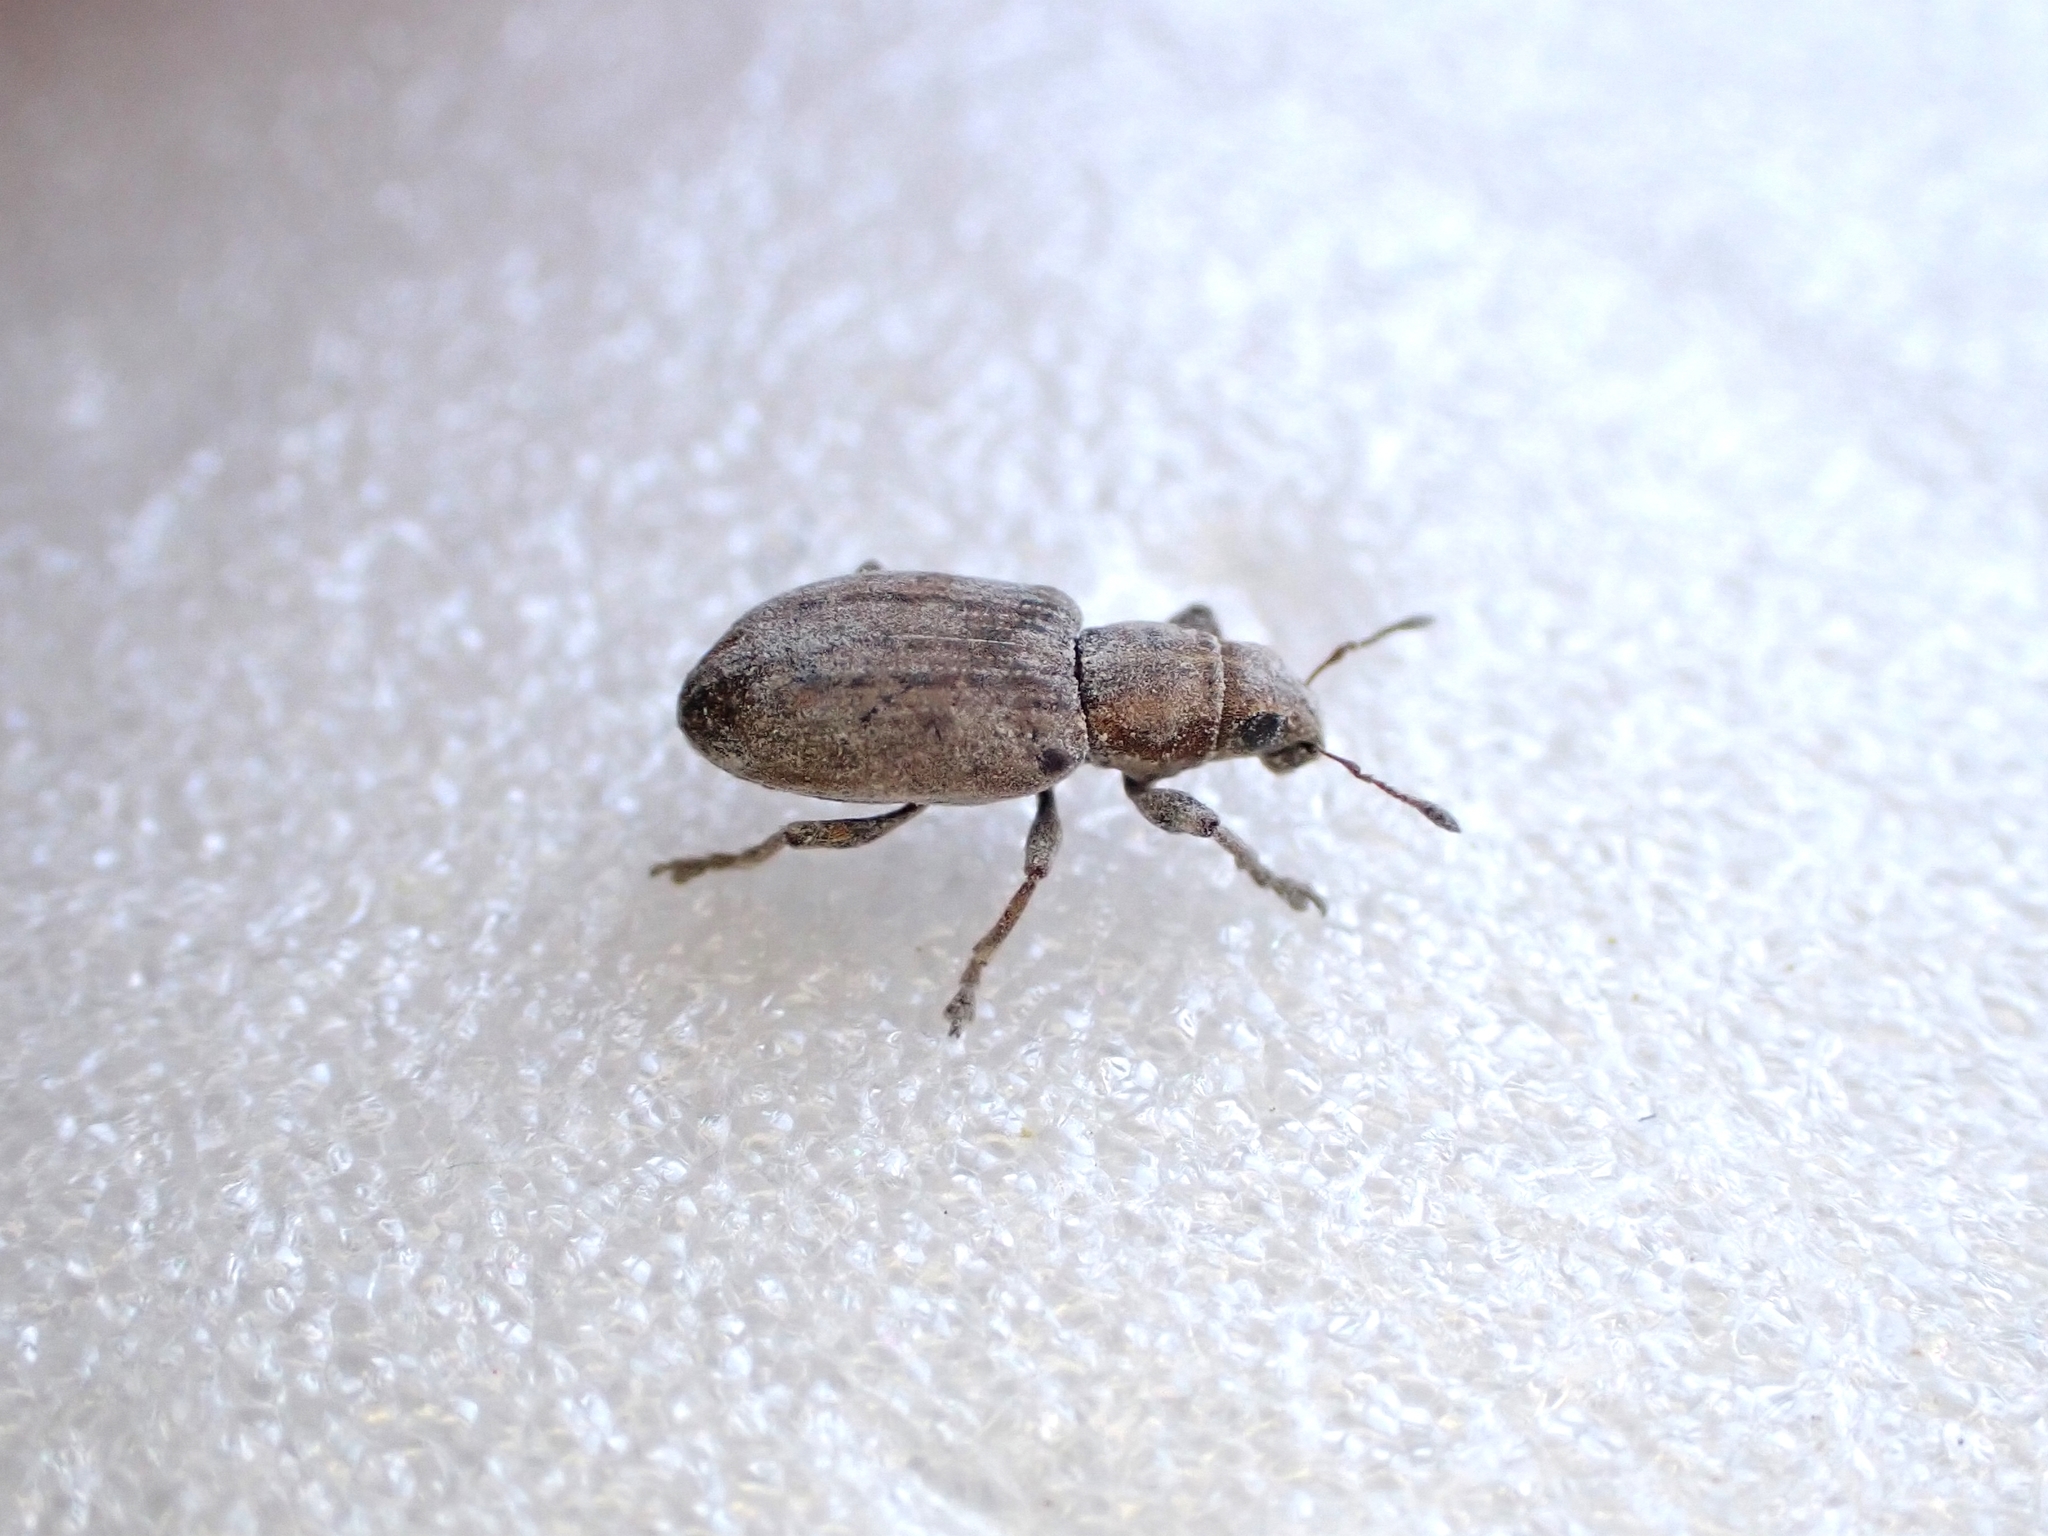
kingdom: Animalia
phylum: Arthropoda
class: Insecta
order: Coleoptera
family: Curculionidae
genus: Sitona
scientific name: Sitona obsoletus
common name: Weevil
